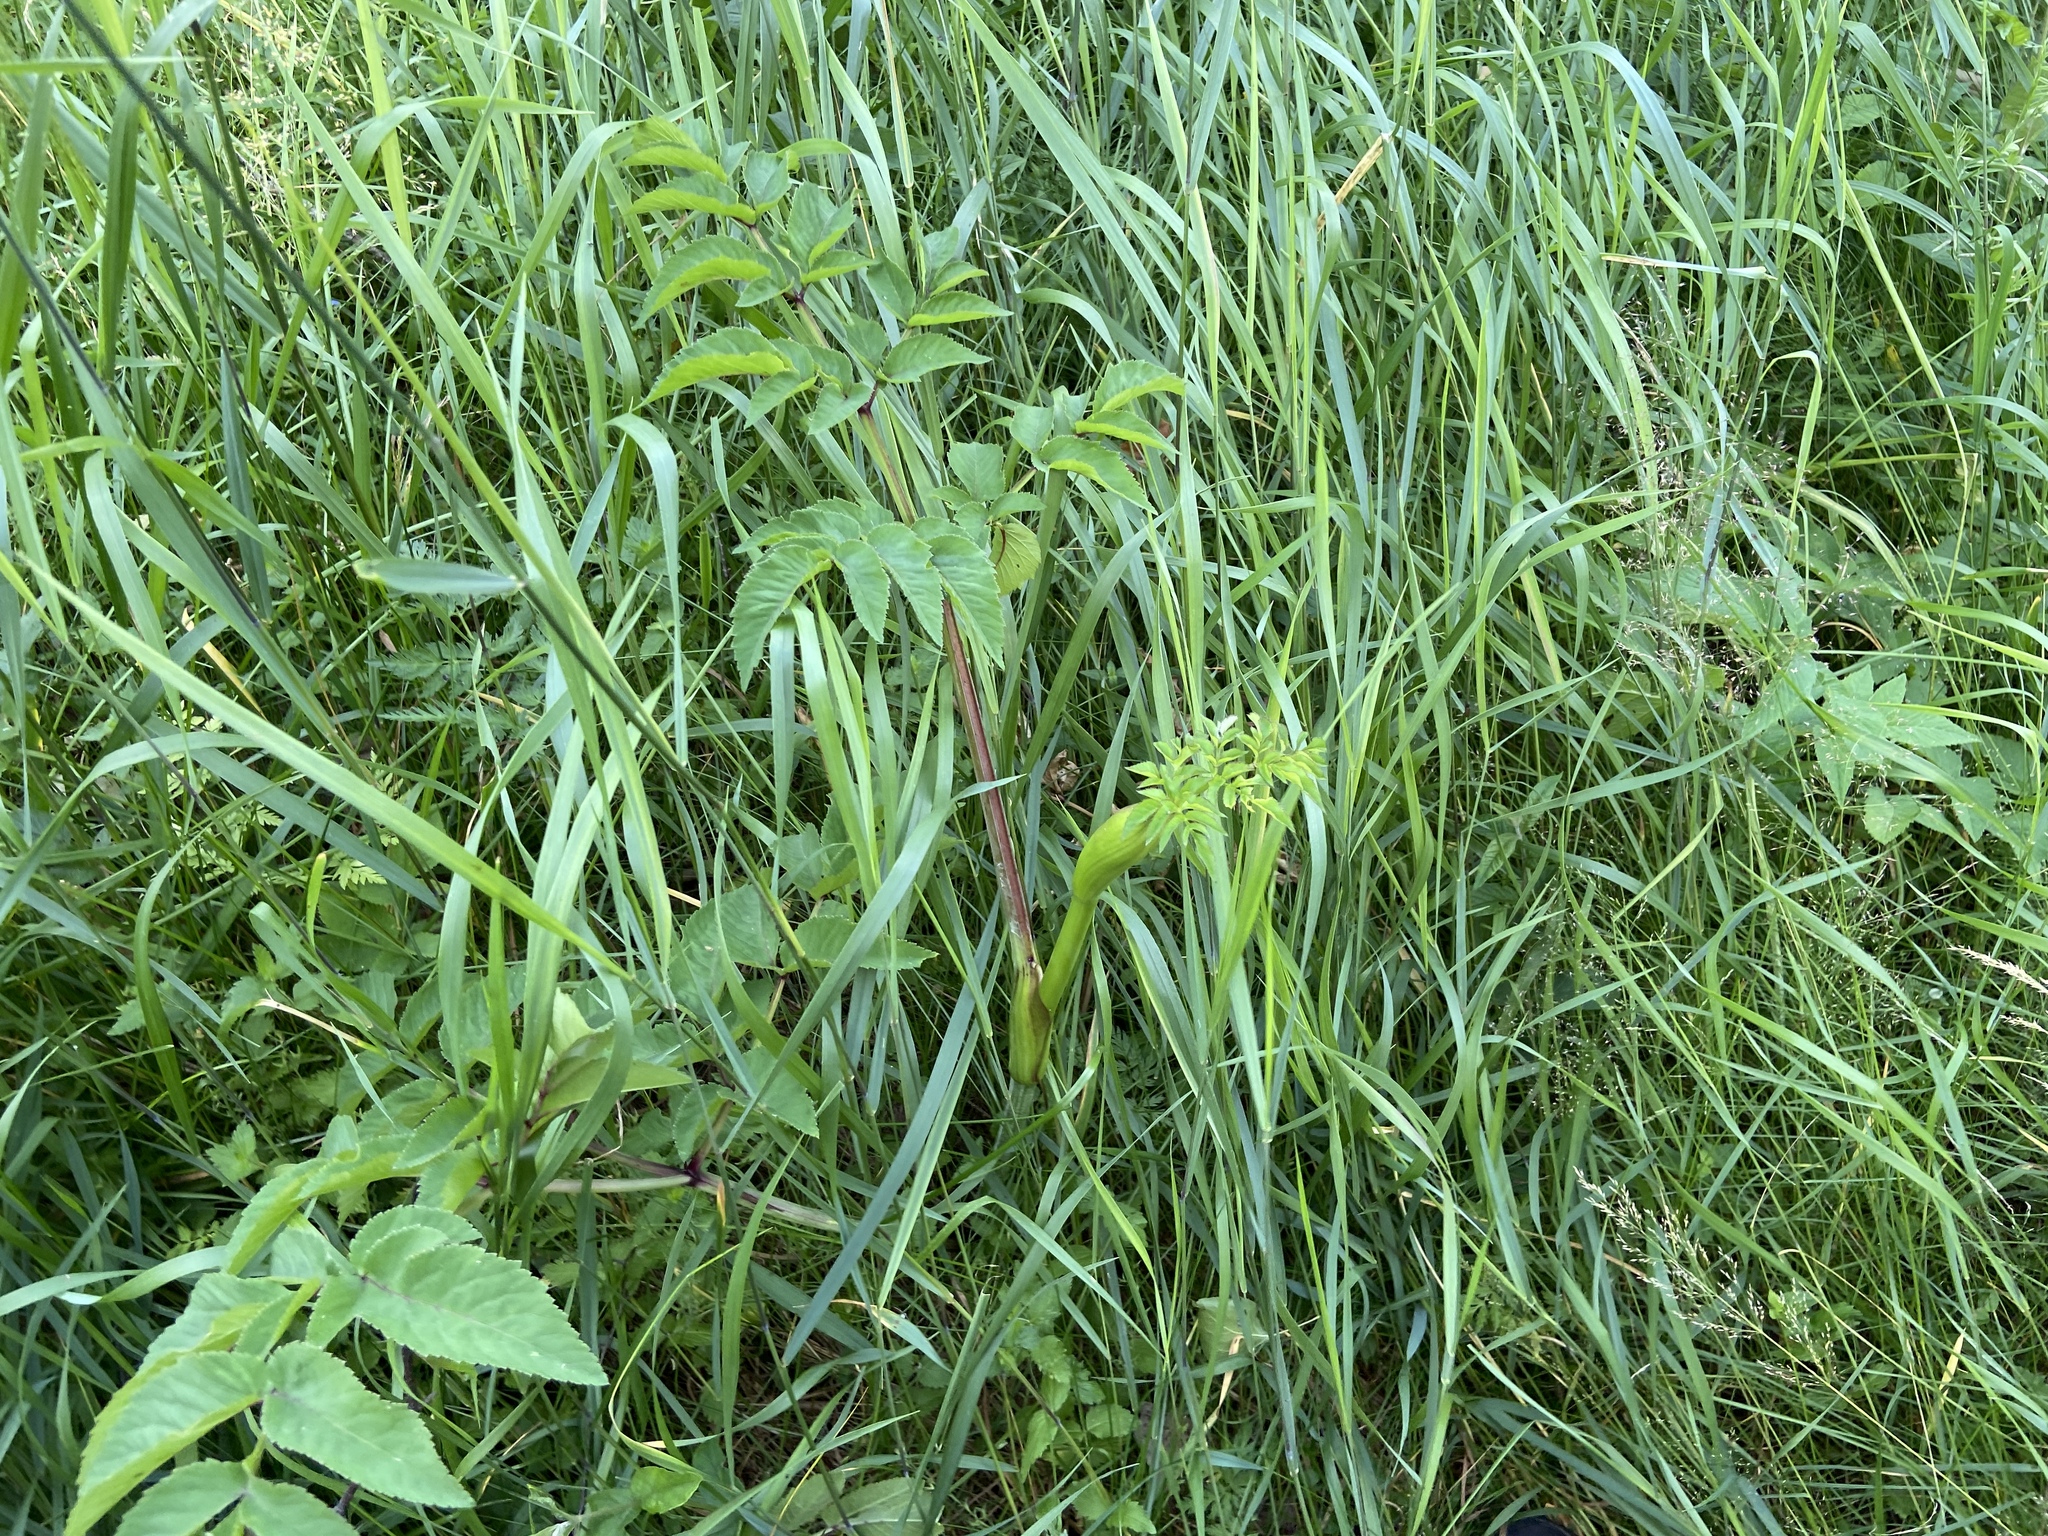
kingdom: Plantae
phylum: Tracheophyta
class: Magnoliopsida
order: Apiales
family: Apiaceae
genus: Angelica
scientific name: Angelica sylvestris
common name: Wild angelica
